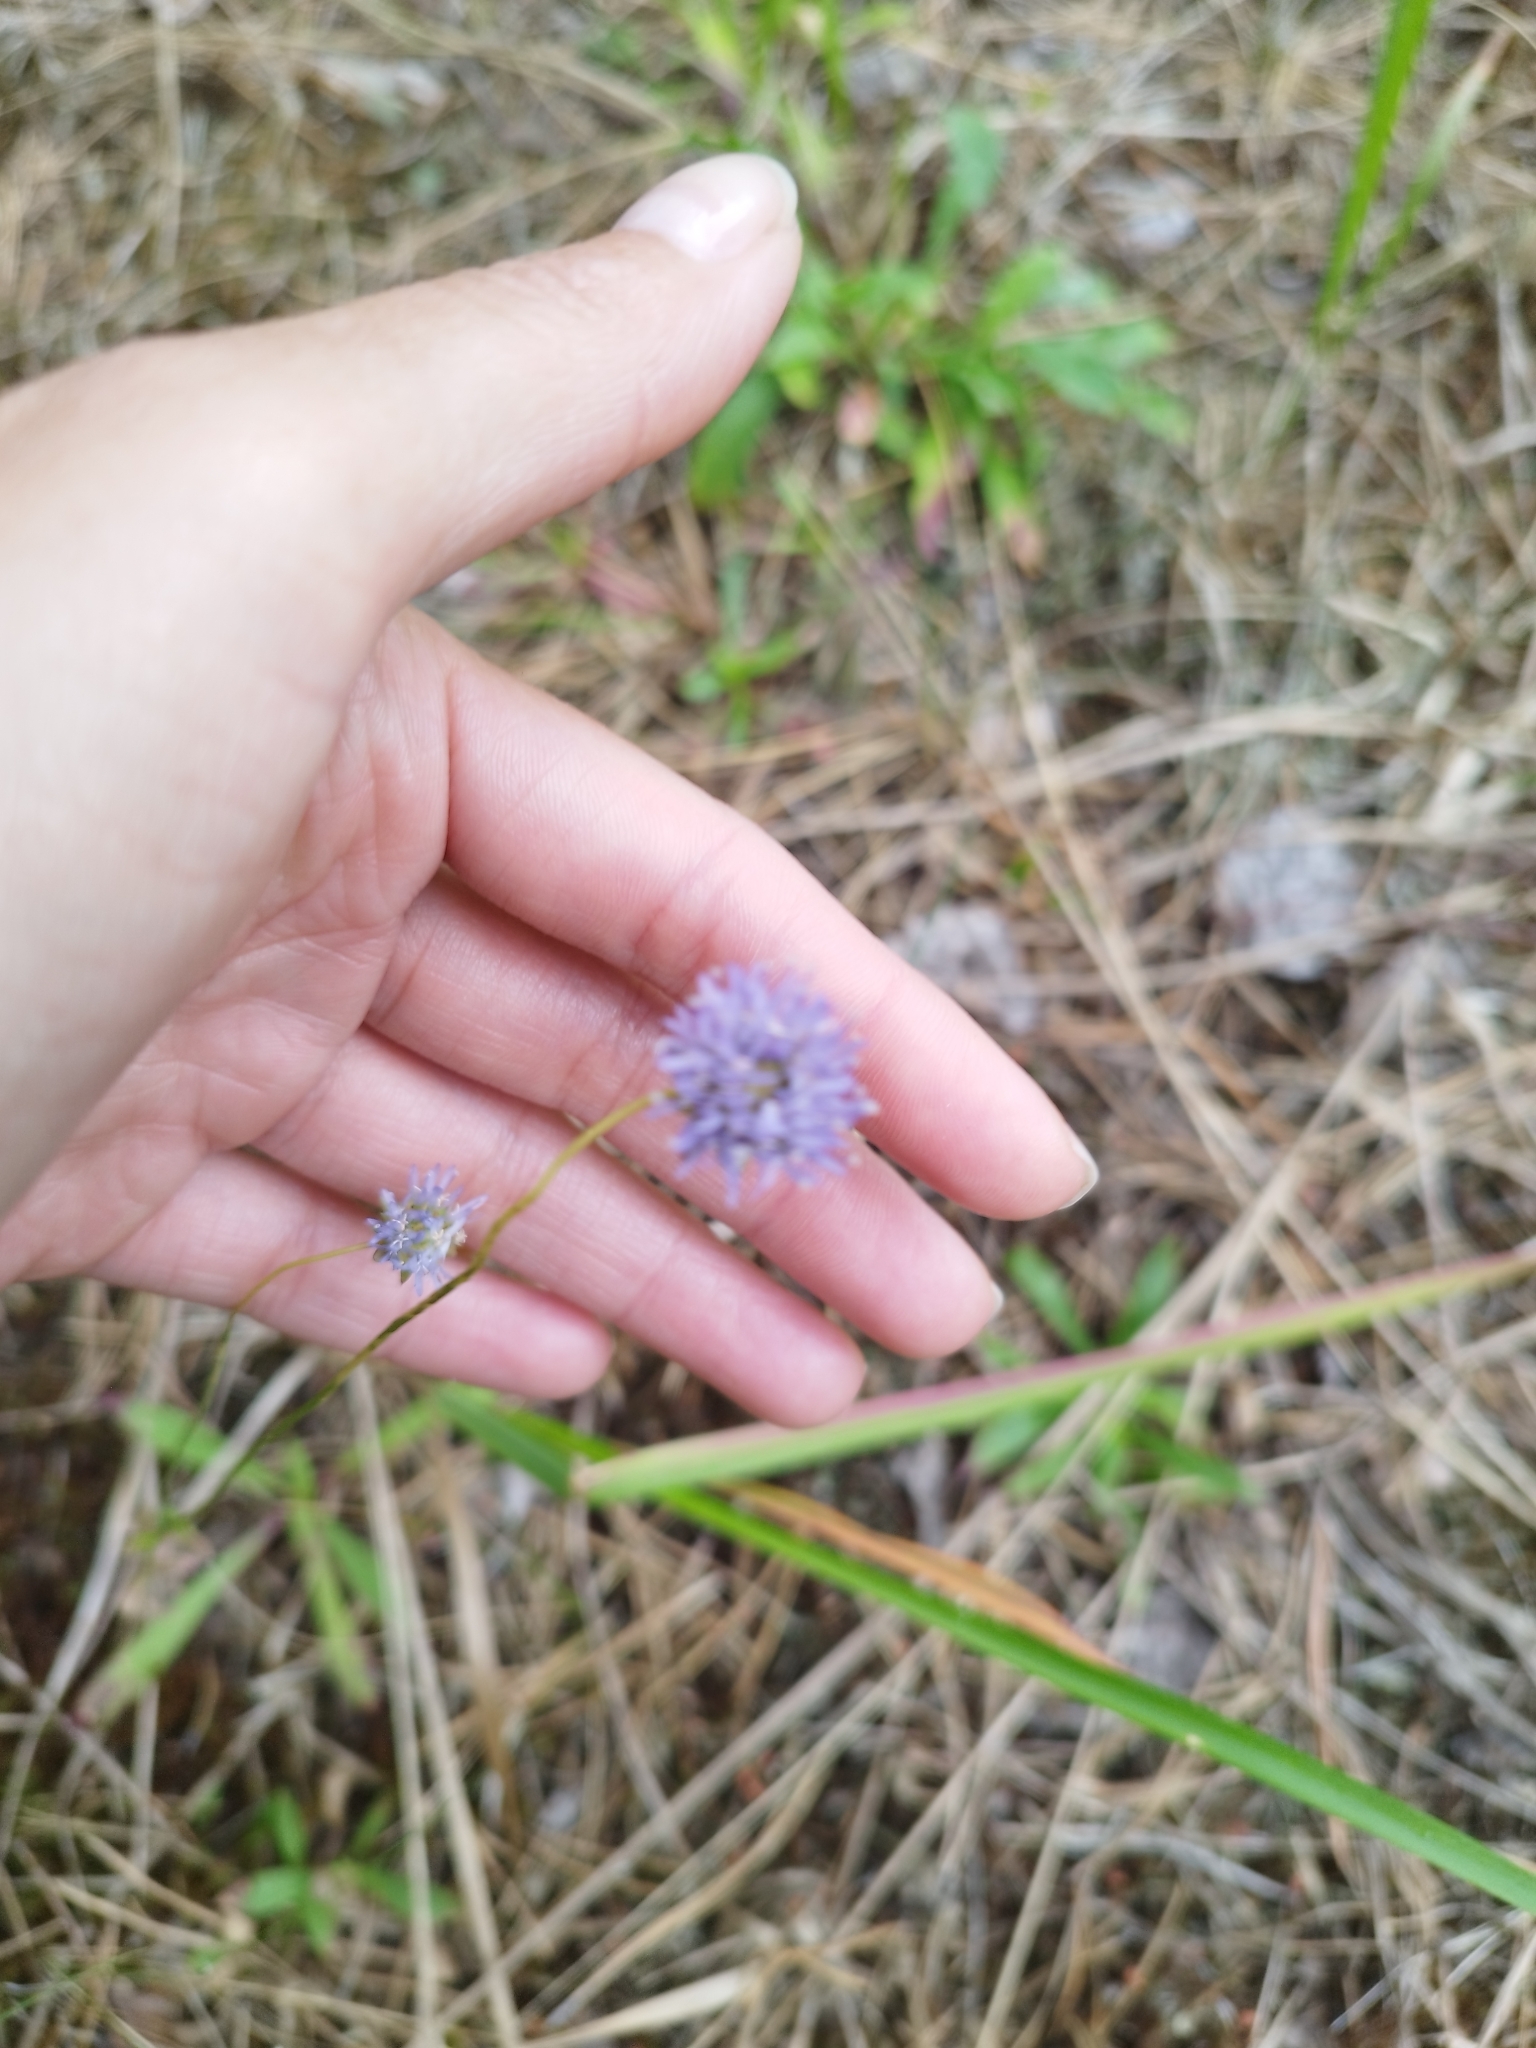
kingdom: Plantae
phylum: Tracheophyta
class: Magnoliopsida
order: Asterales
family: Campanulaceae
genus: Jasione
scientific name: Jasione montana
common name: Sheep's-bit
